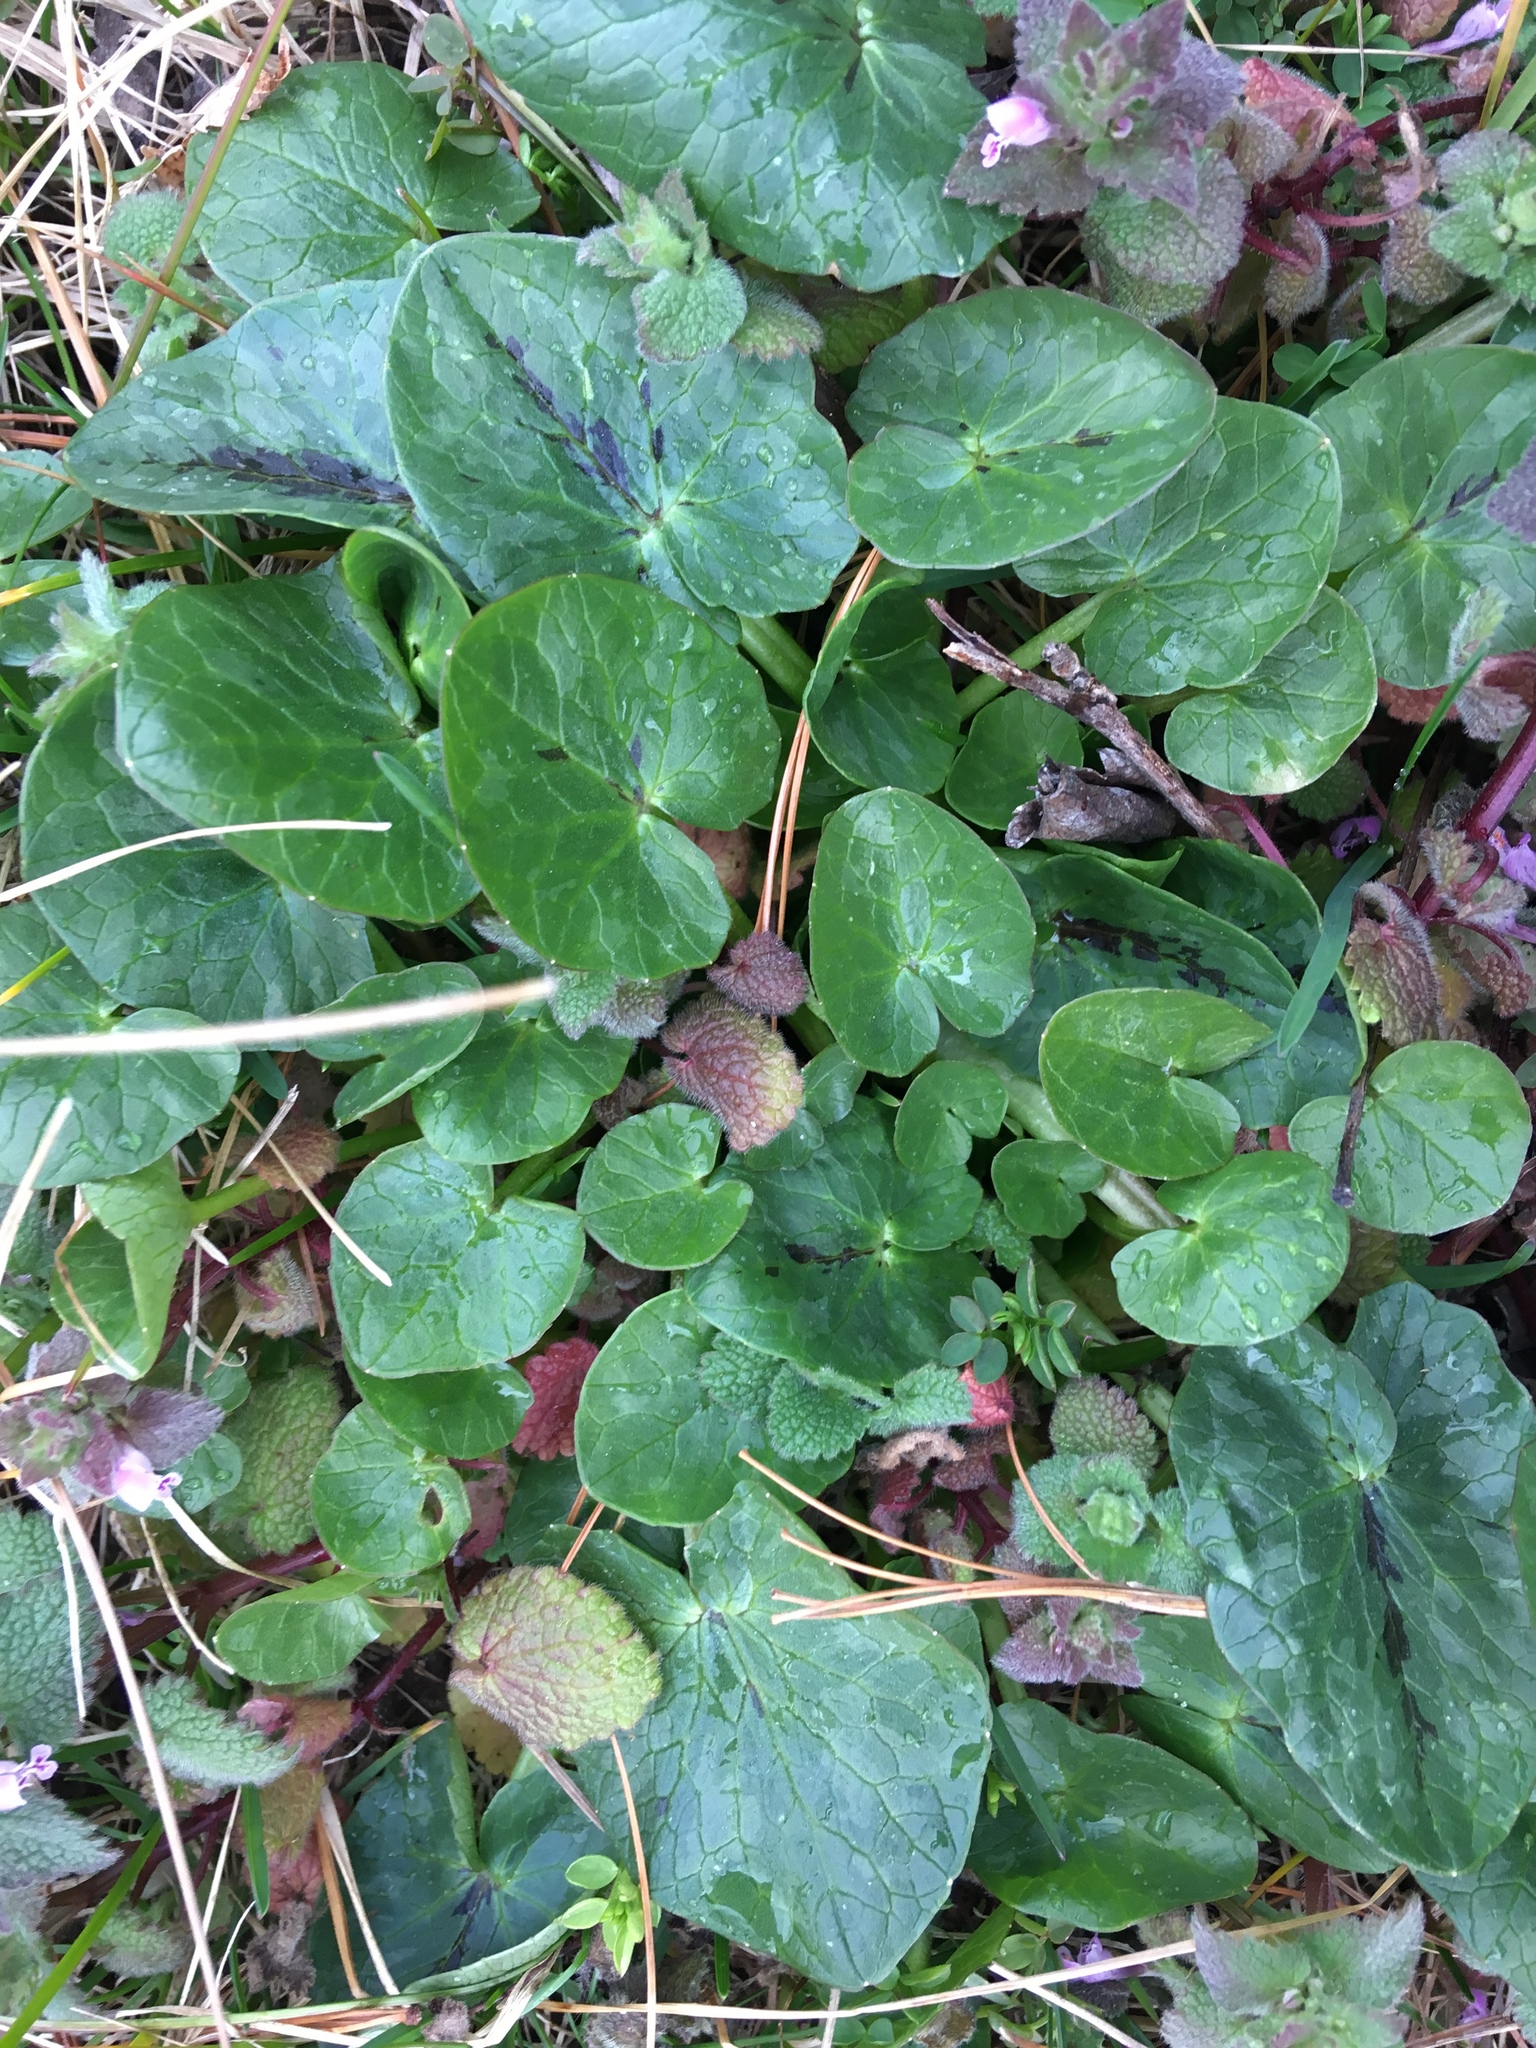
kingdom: Plantae
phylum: Tracheophyta
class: Magnoliopsida
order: Ranunculales
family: Ranunculaceae
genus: Ficaria
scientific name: Ficaria verna
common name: Lesser celandine
